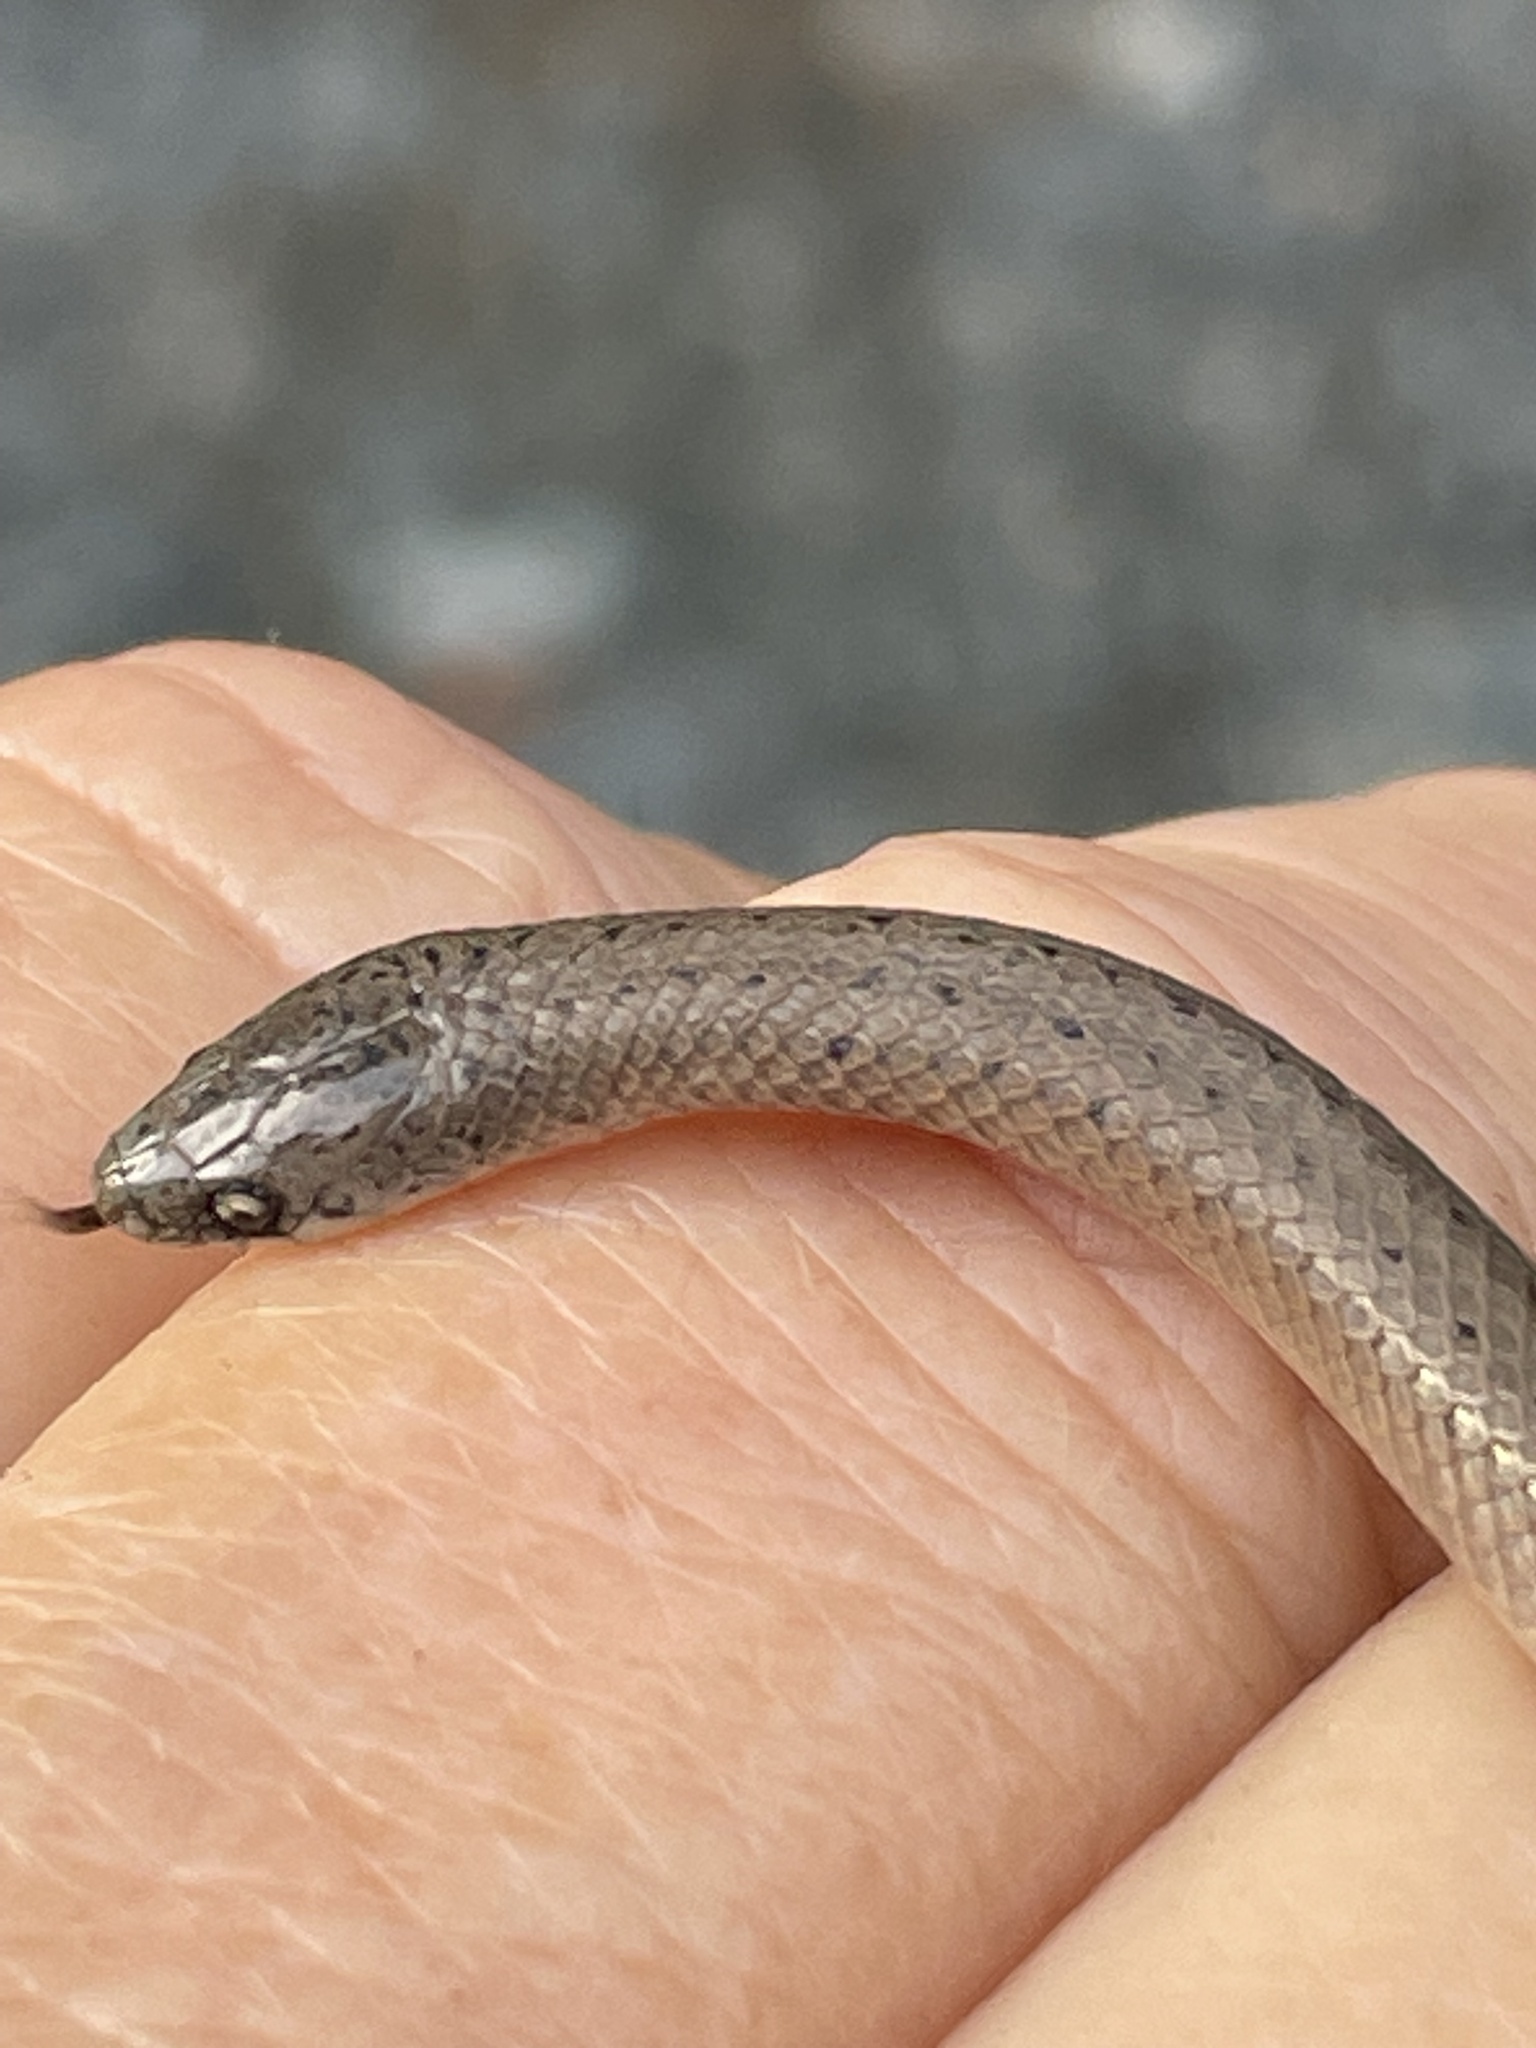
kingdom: Animalia
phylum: Chordata
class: Squamata
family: Colubridae
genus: Virginia
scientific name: Virginia valeriae
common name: Smooth earth snake
